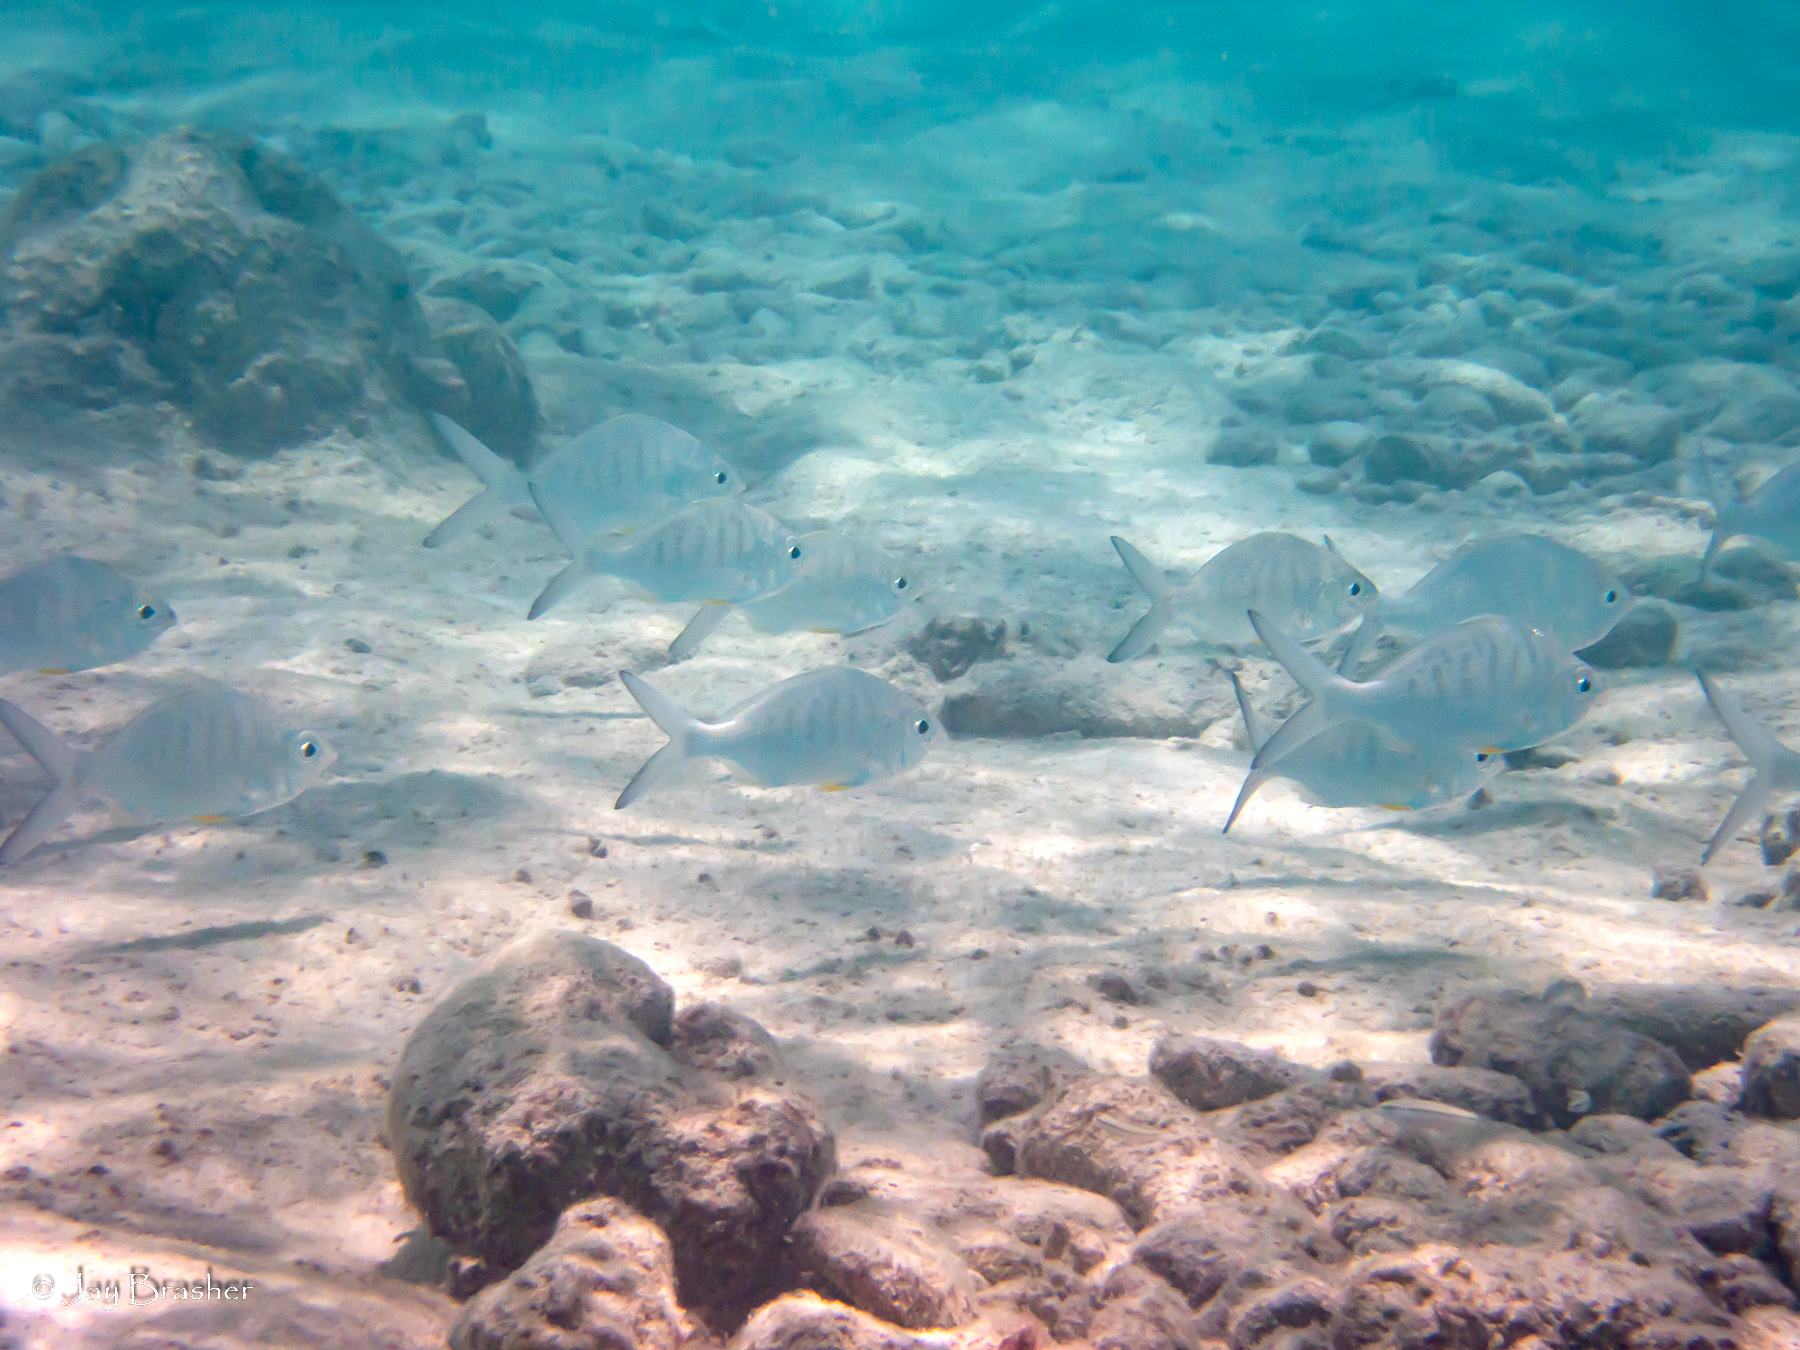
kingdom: Animalia
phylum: Chordata
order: Perciformes
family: Gerreidae
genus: Gerres
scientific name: Gerres cinereus
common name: Hedow
